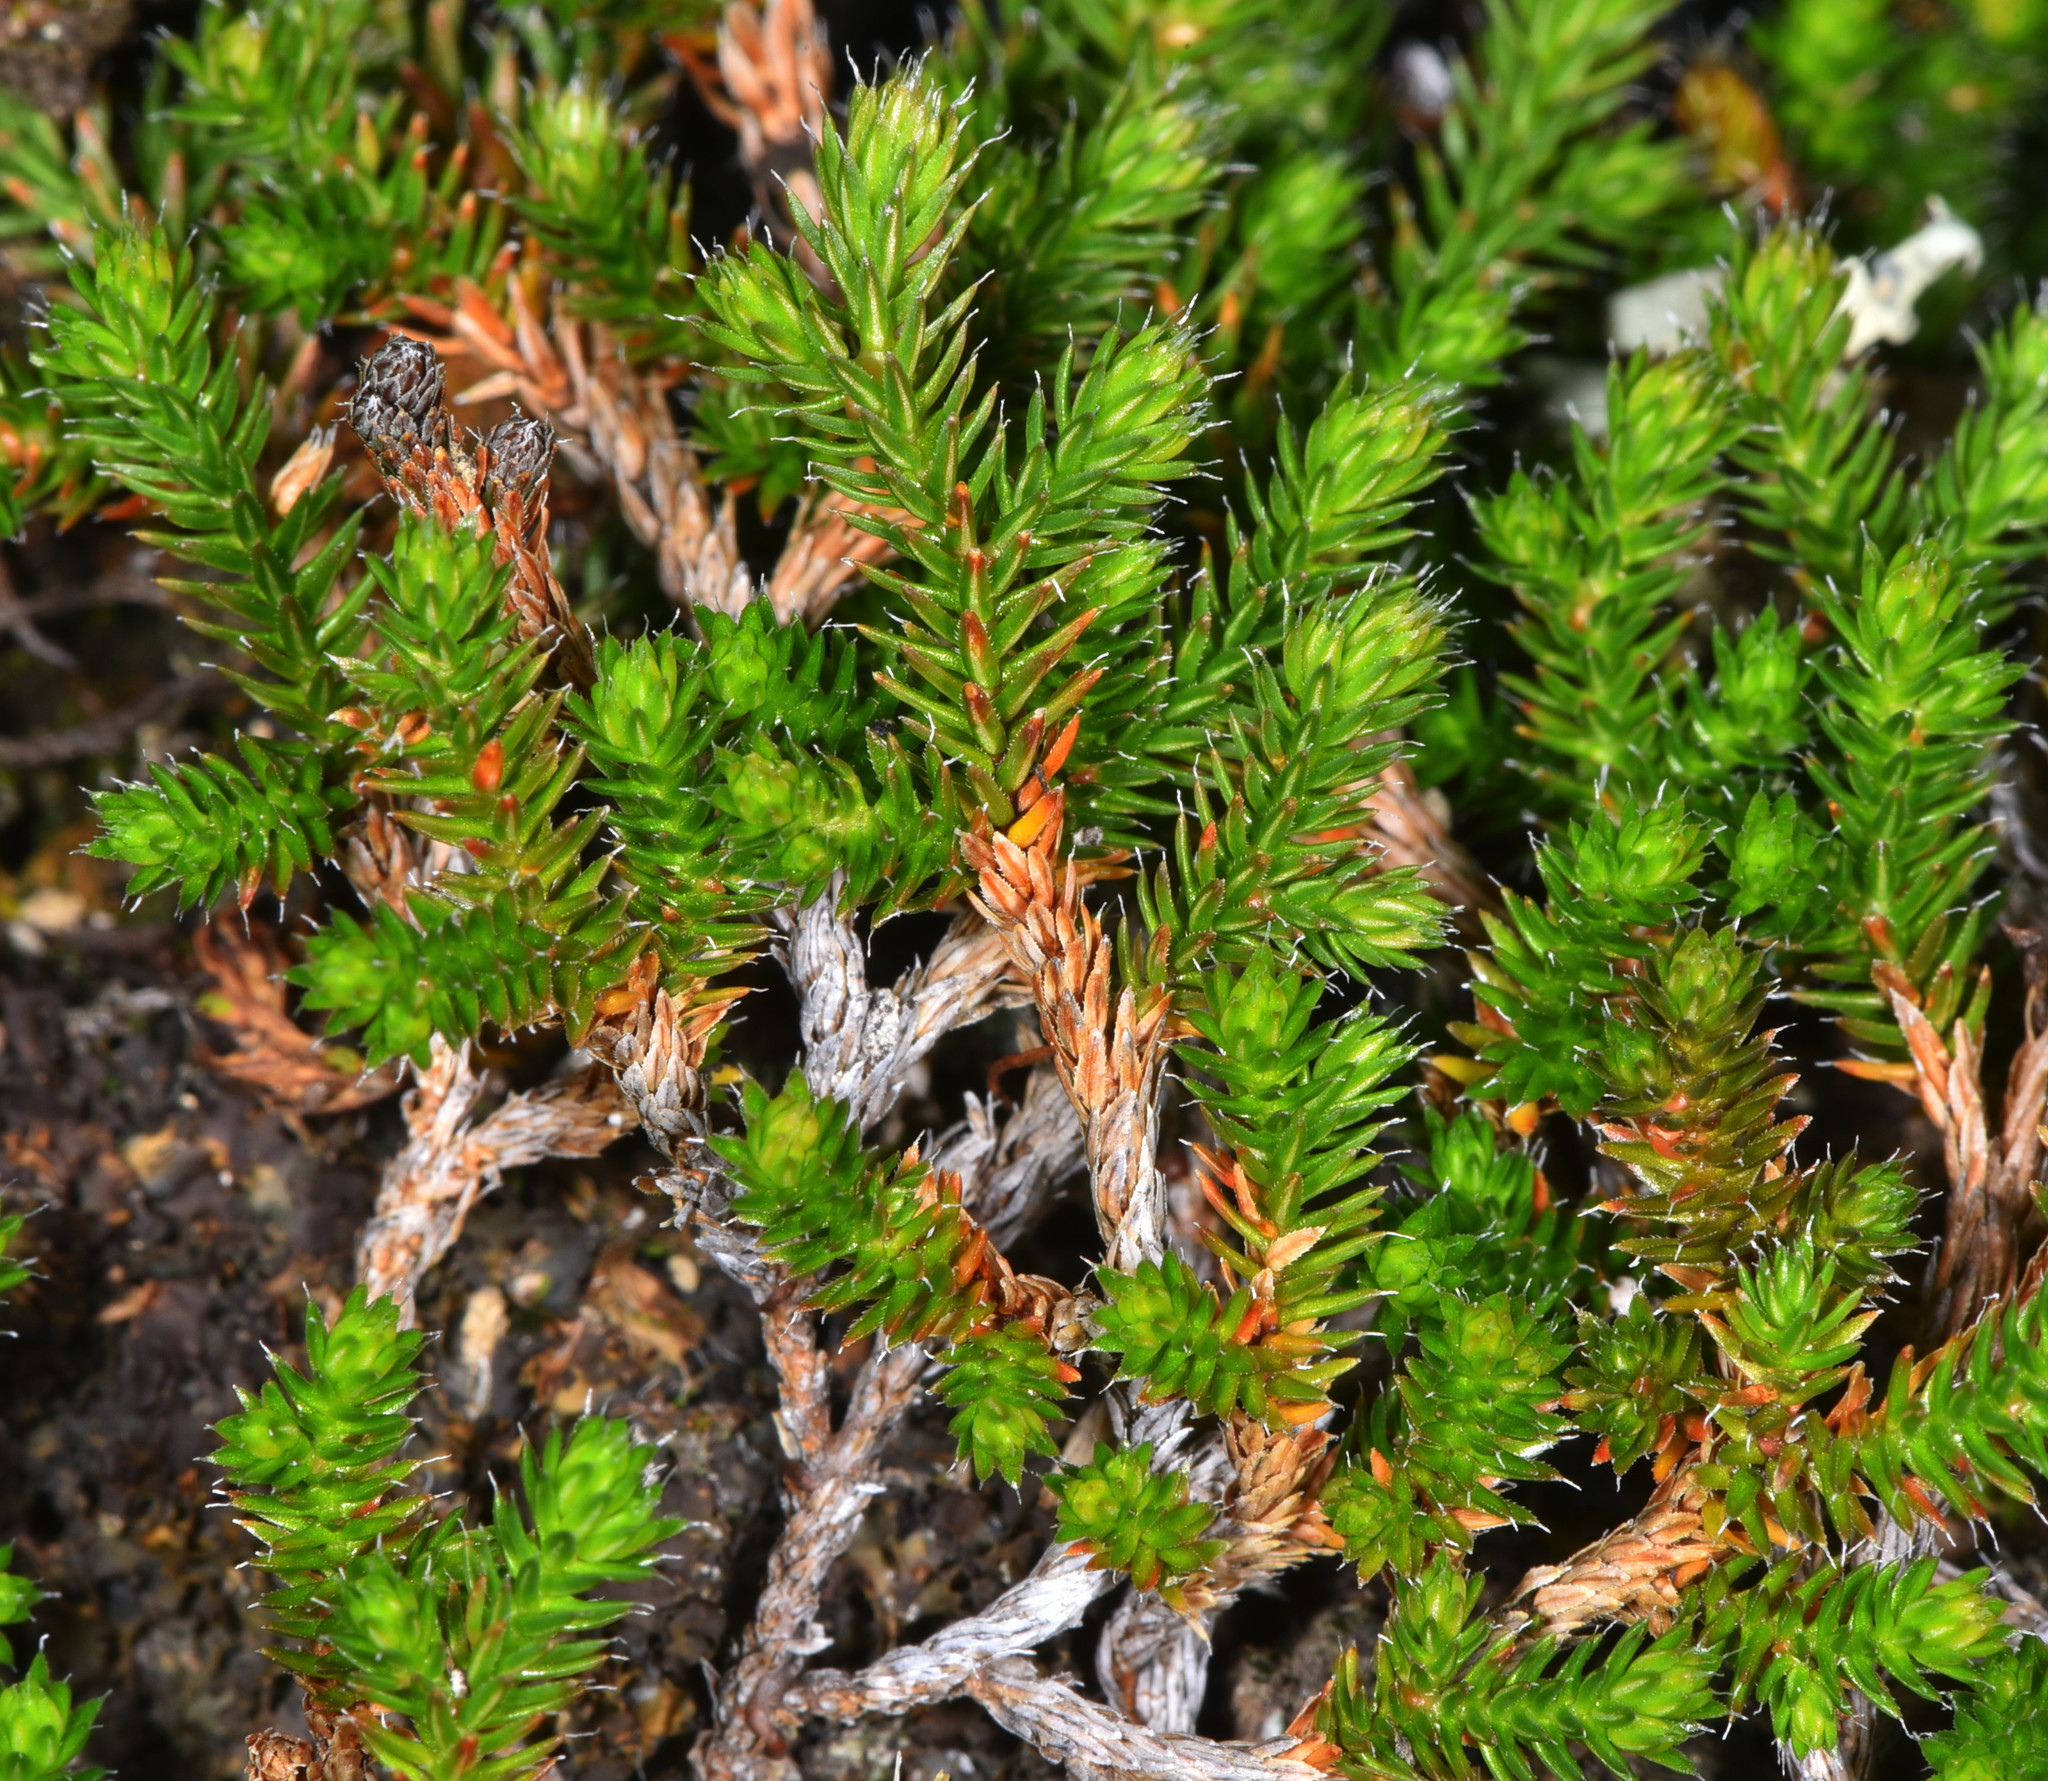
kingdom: Plantae
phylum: Tracheophyta
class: Lycopodiopsida
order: Selaginellales
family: Selaginellaceae
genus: Selaginella
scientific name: Selaginella wallacei
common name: Wallace's selaginella
